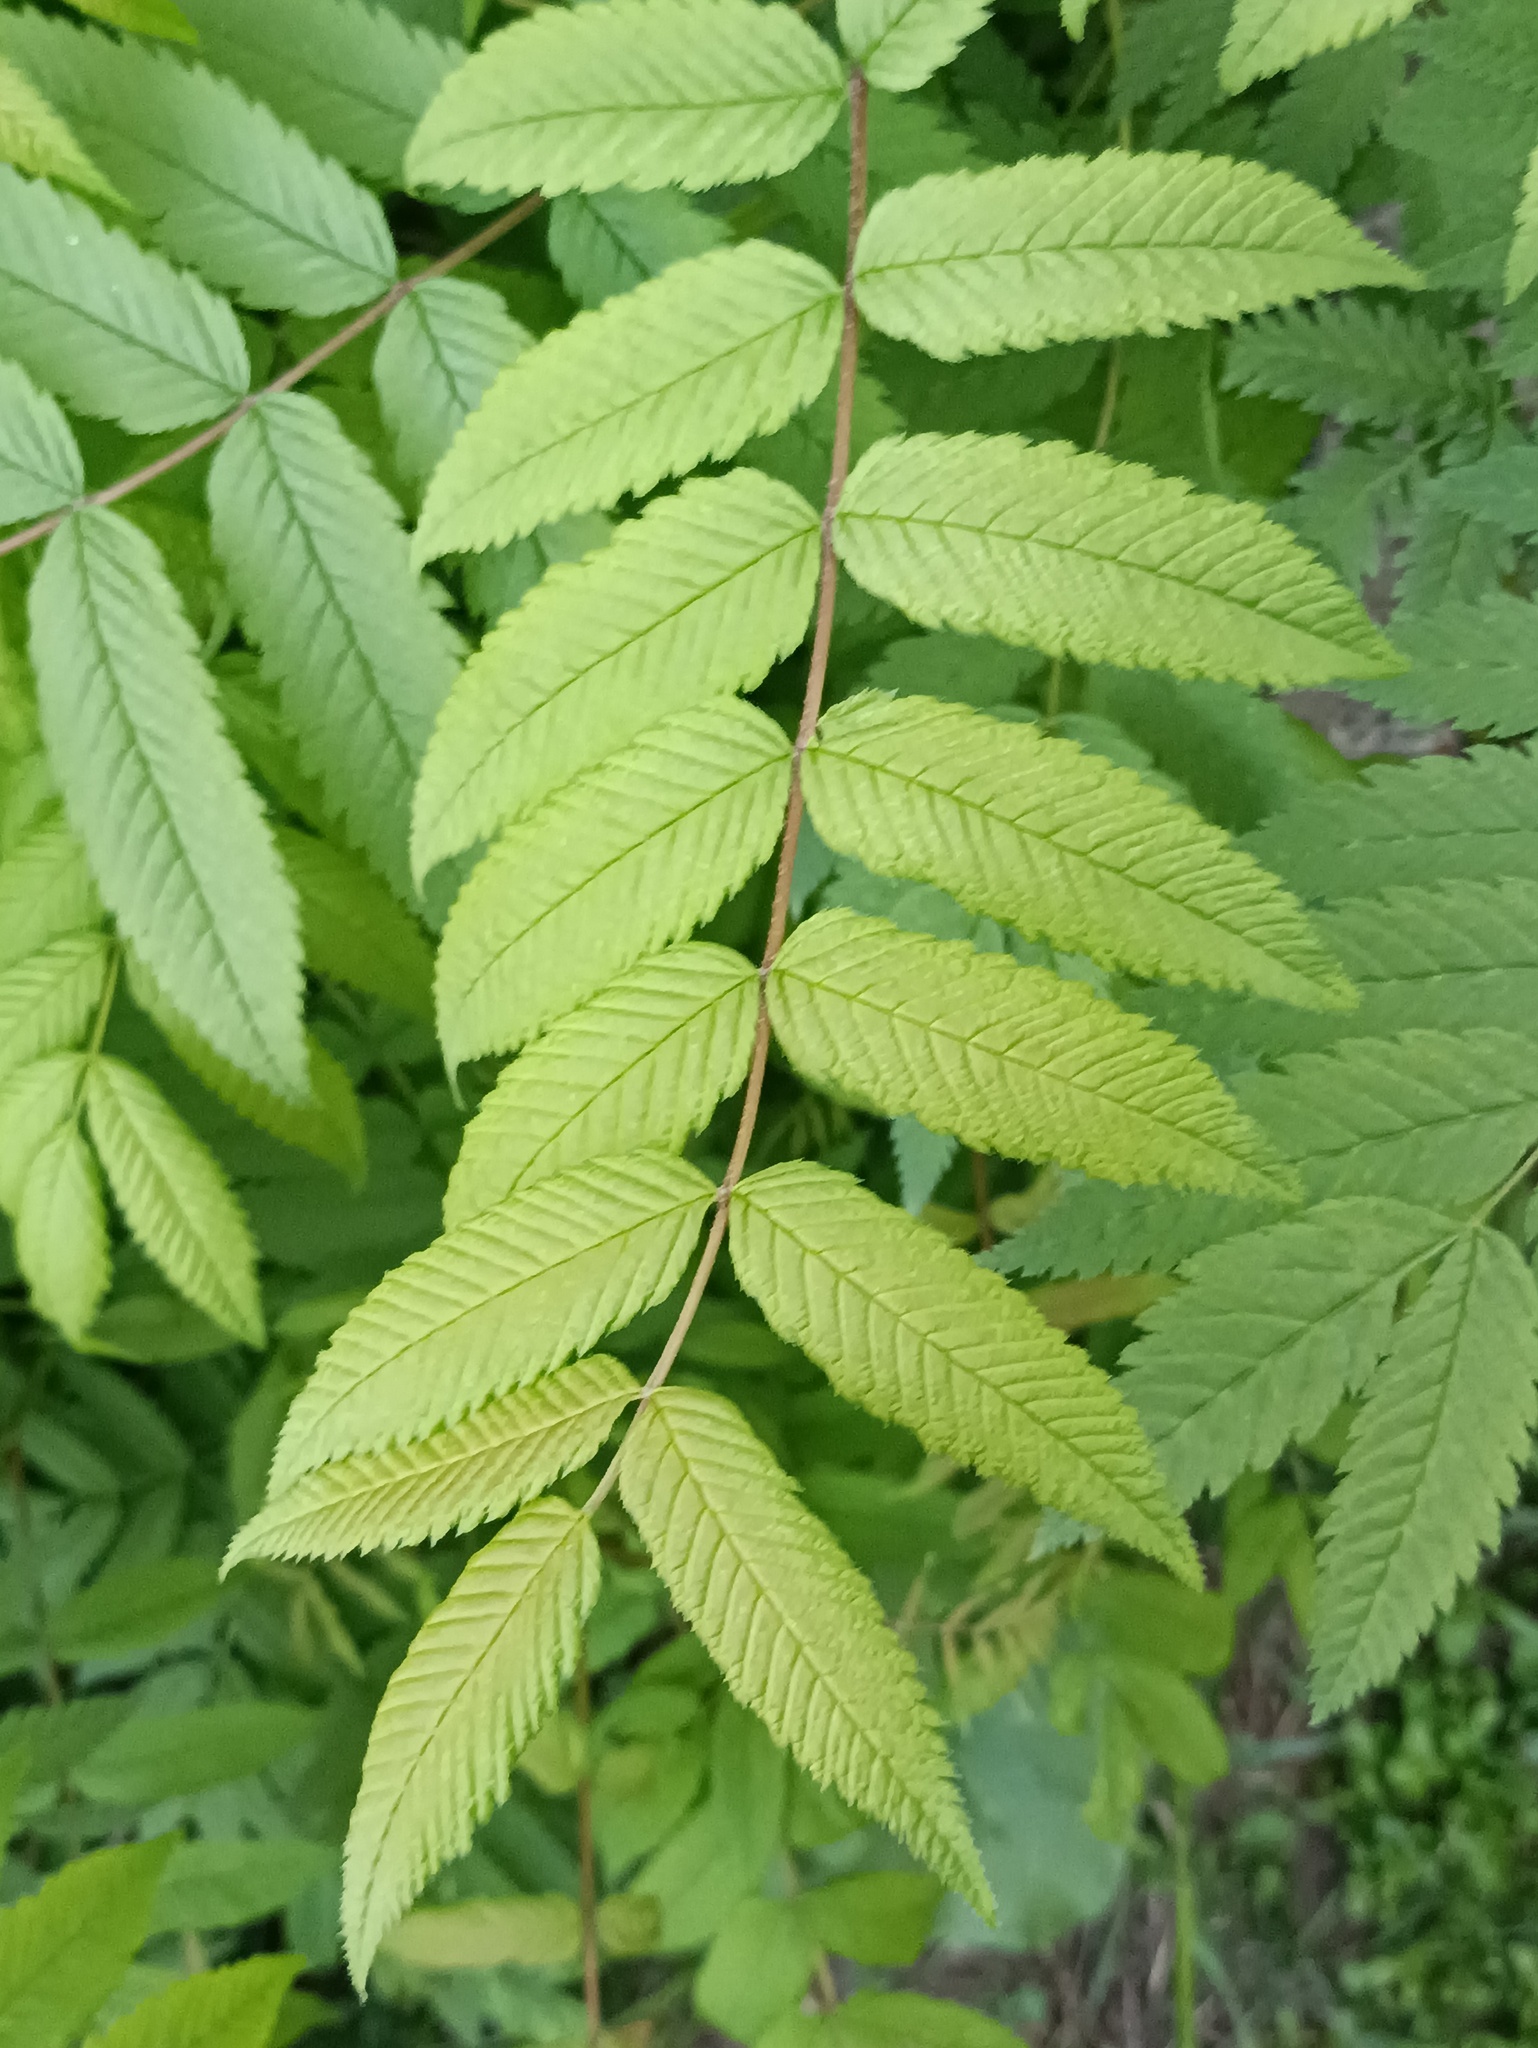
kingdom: Plantae
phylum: Tracheophyta
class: Magnoliopsida
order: Rosales
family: Rosaceae
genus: Sorbaria
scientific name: Sorbaria sorbifolia
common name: False spiraea
